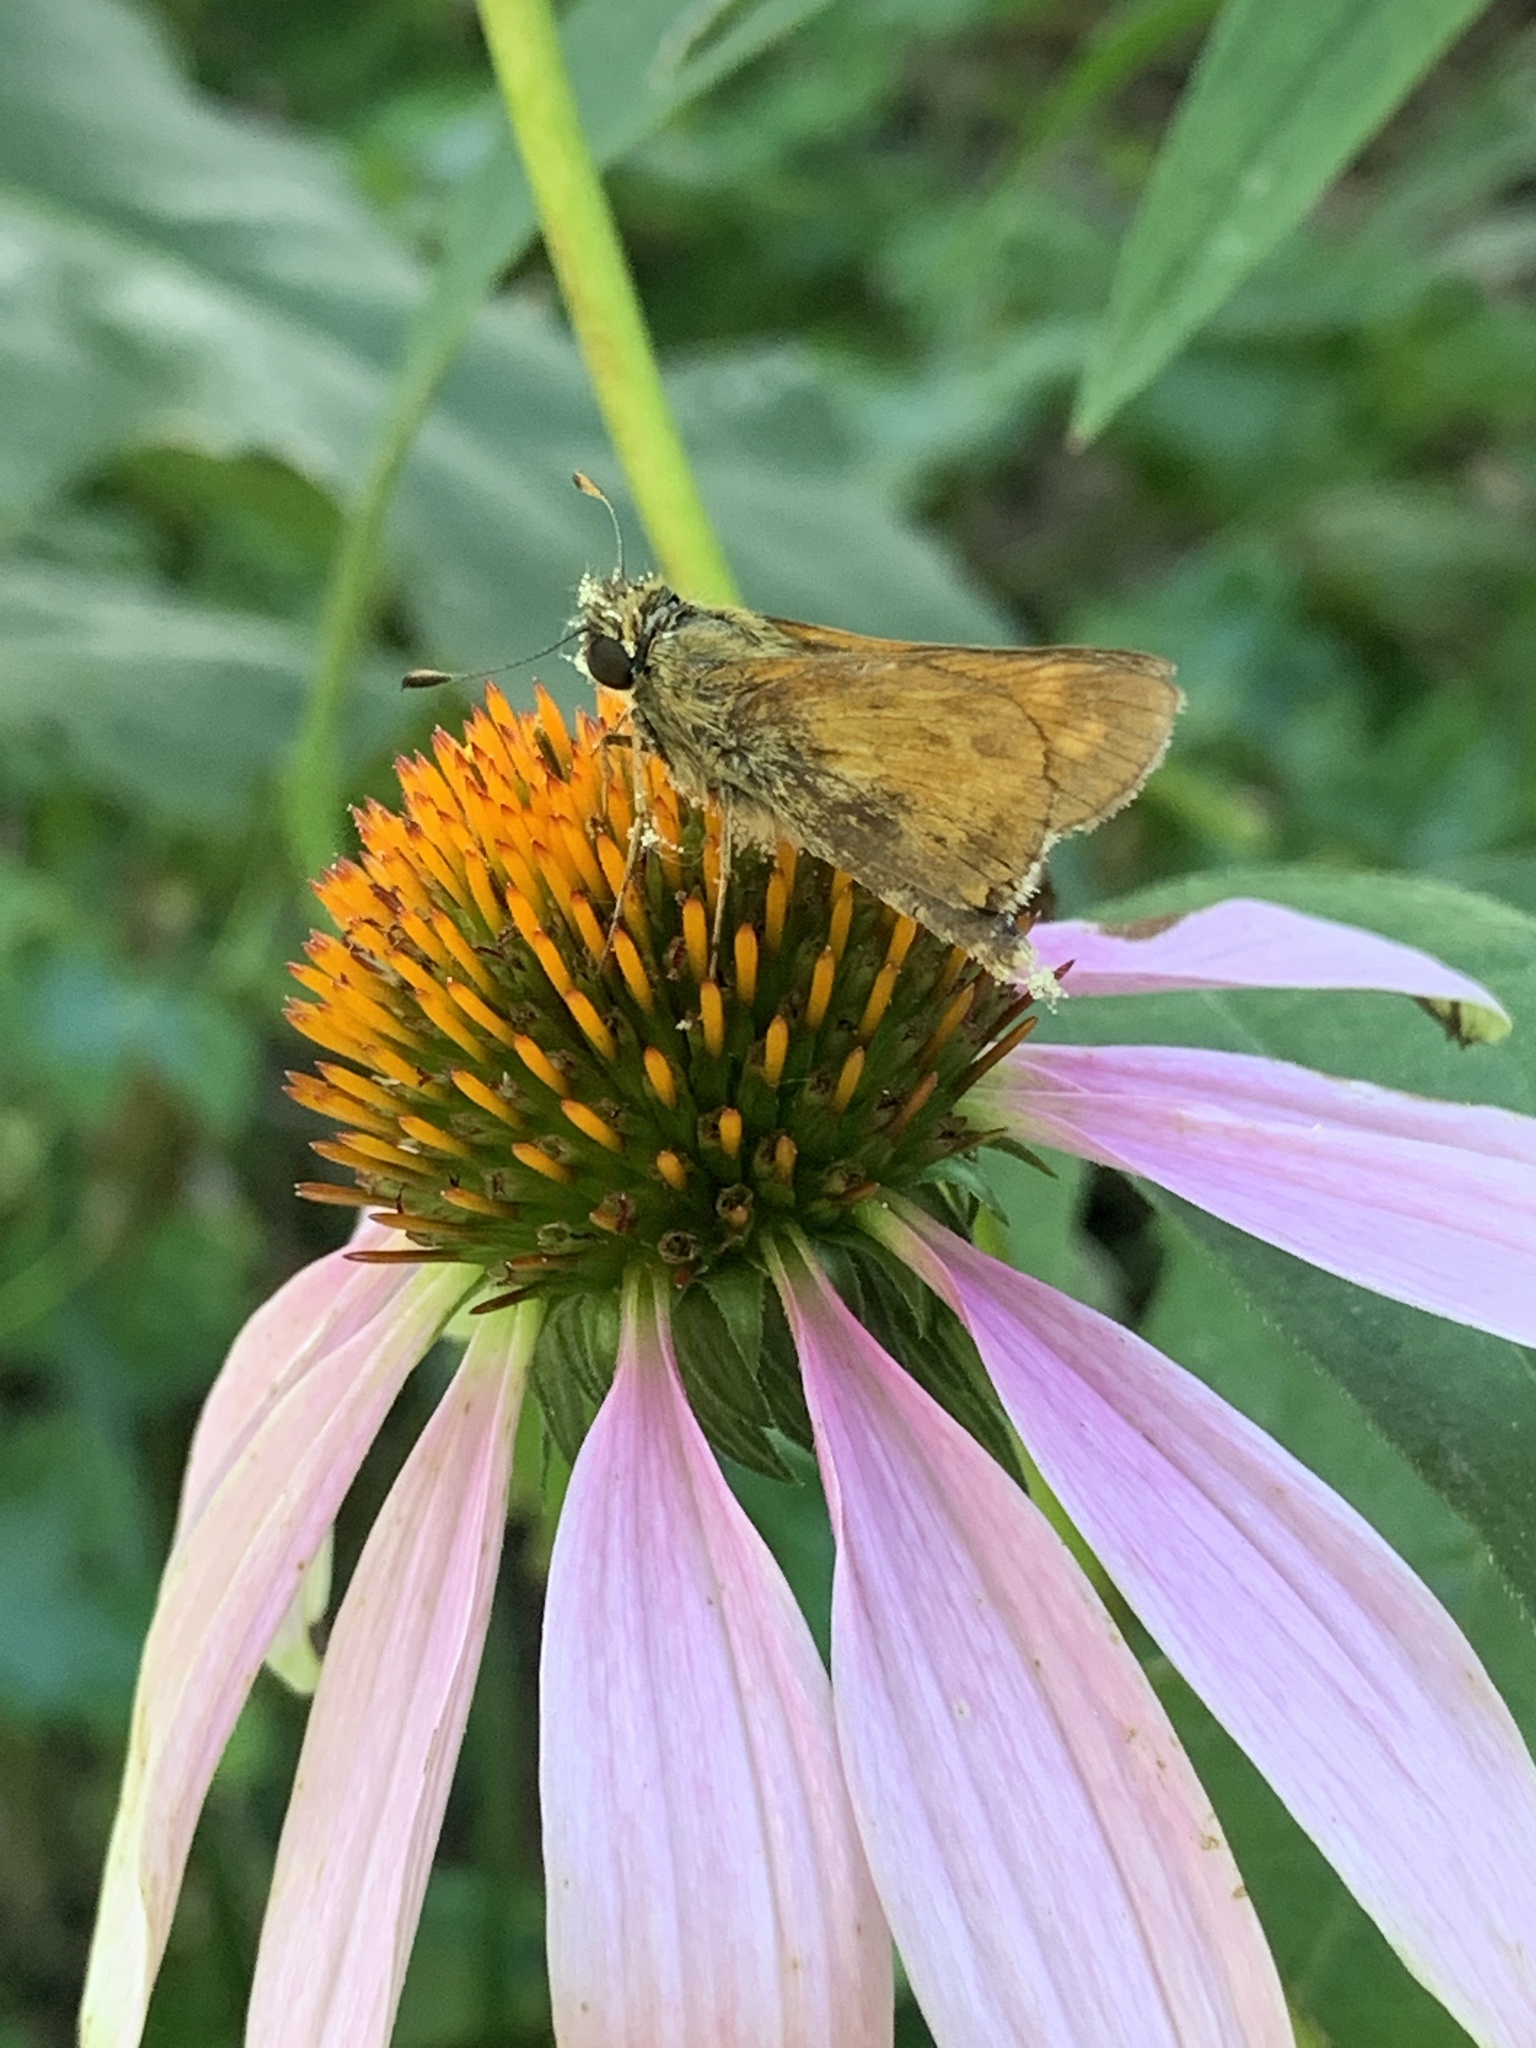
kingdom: Animalia
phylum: Arthropoda
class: Insecta
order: Lepidoptera
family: Hesperiidae
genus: Atalopedes
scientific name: Atalopedes
